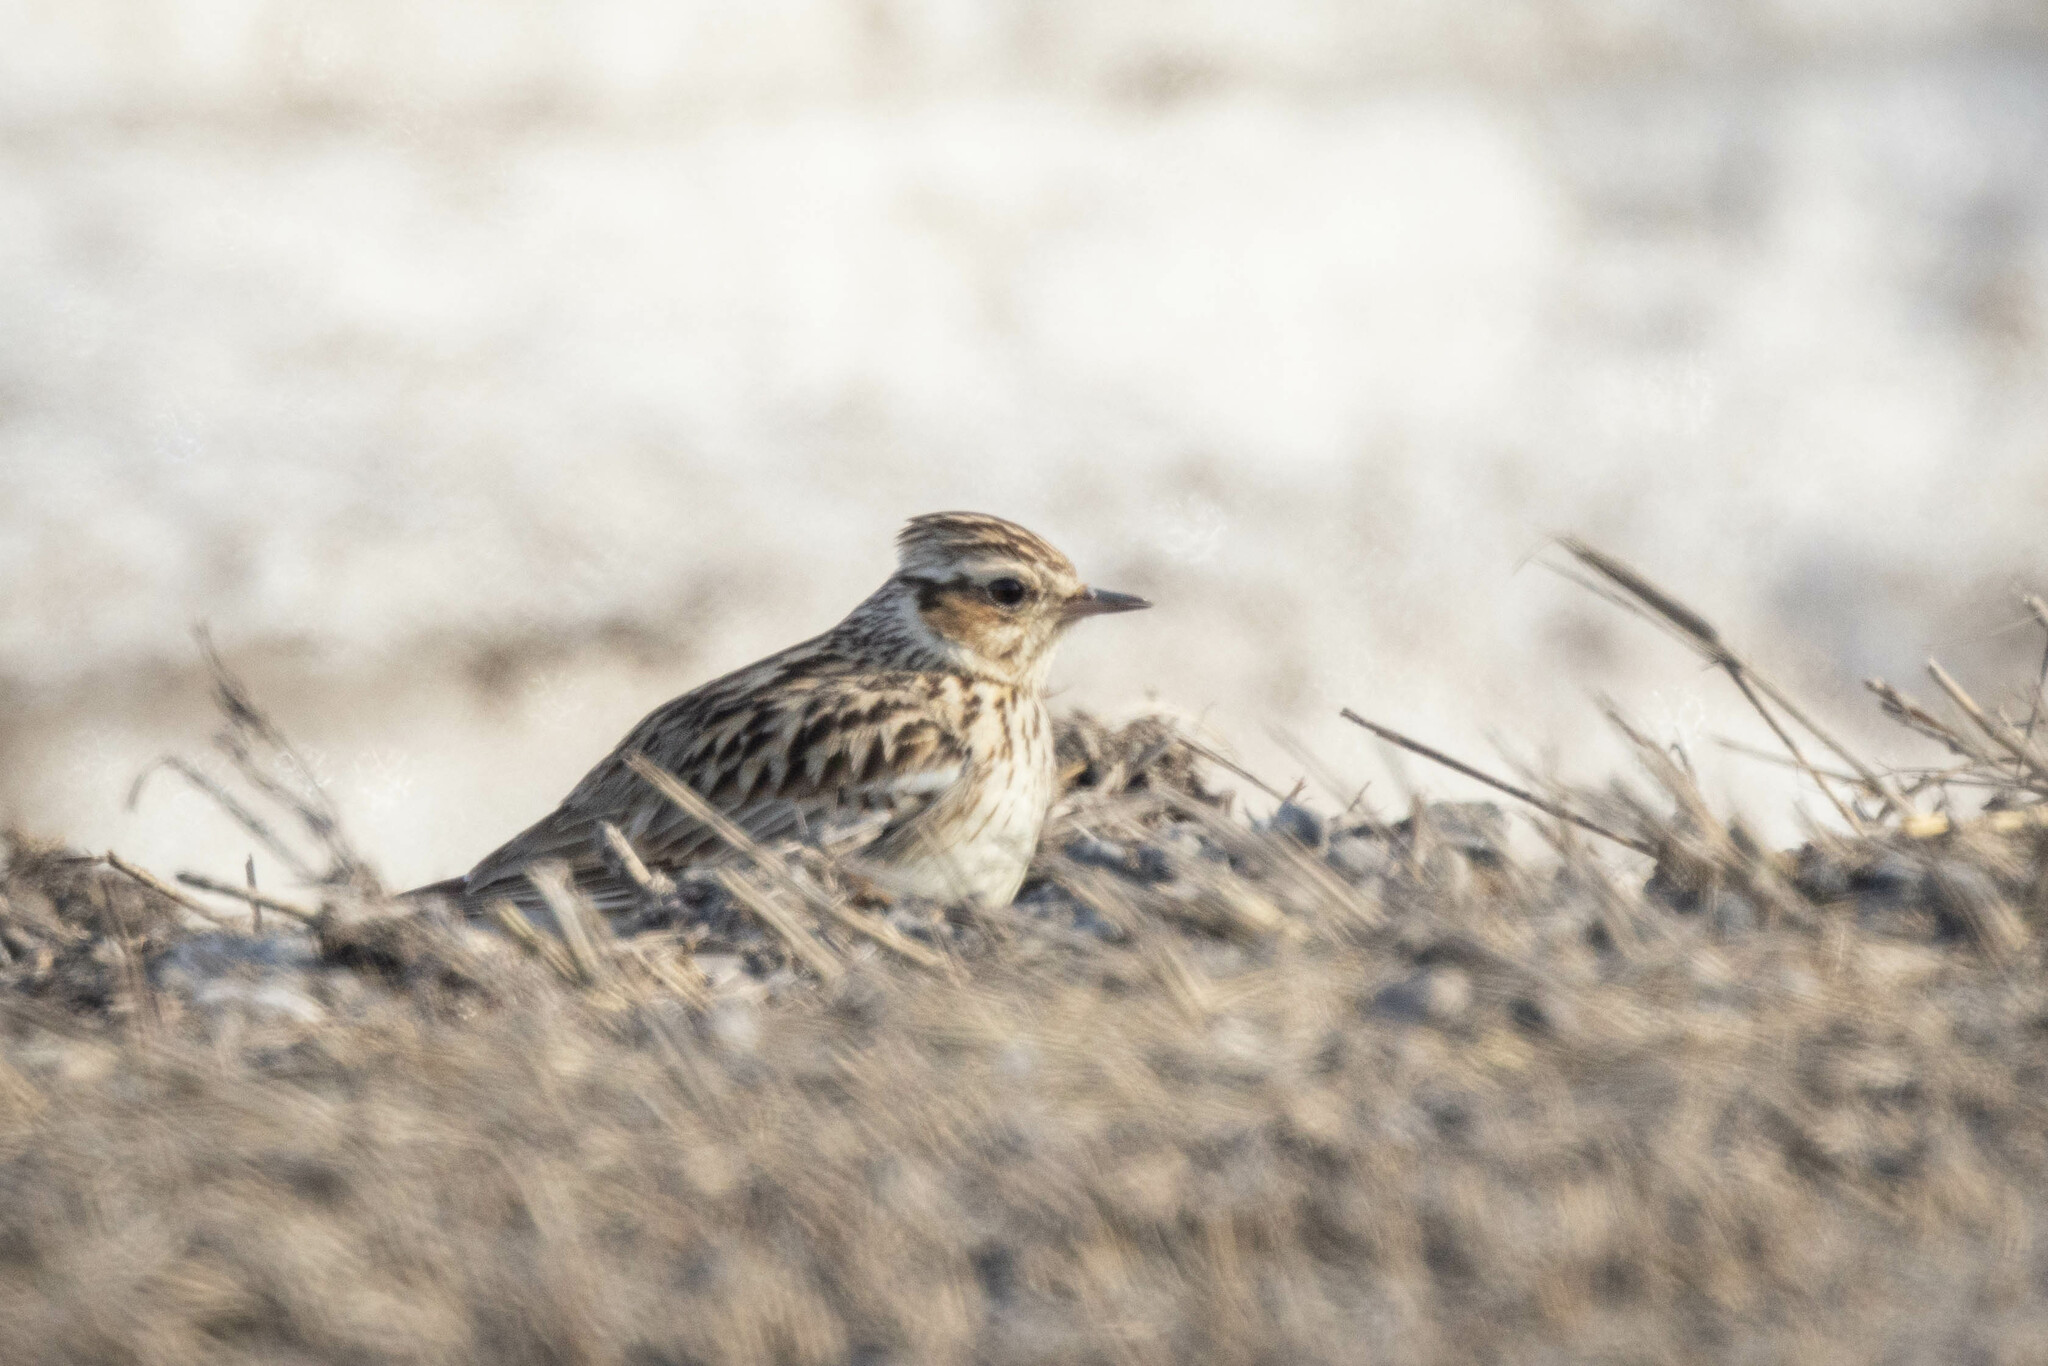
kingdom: Animalia
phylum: Chordata
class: Aves
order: Passeriformes
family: Alaudidae
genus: Lullula
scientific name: Lullula arborea
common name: Woodlark
